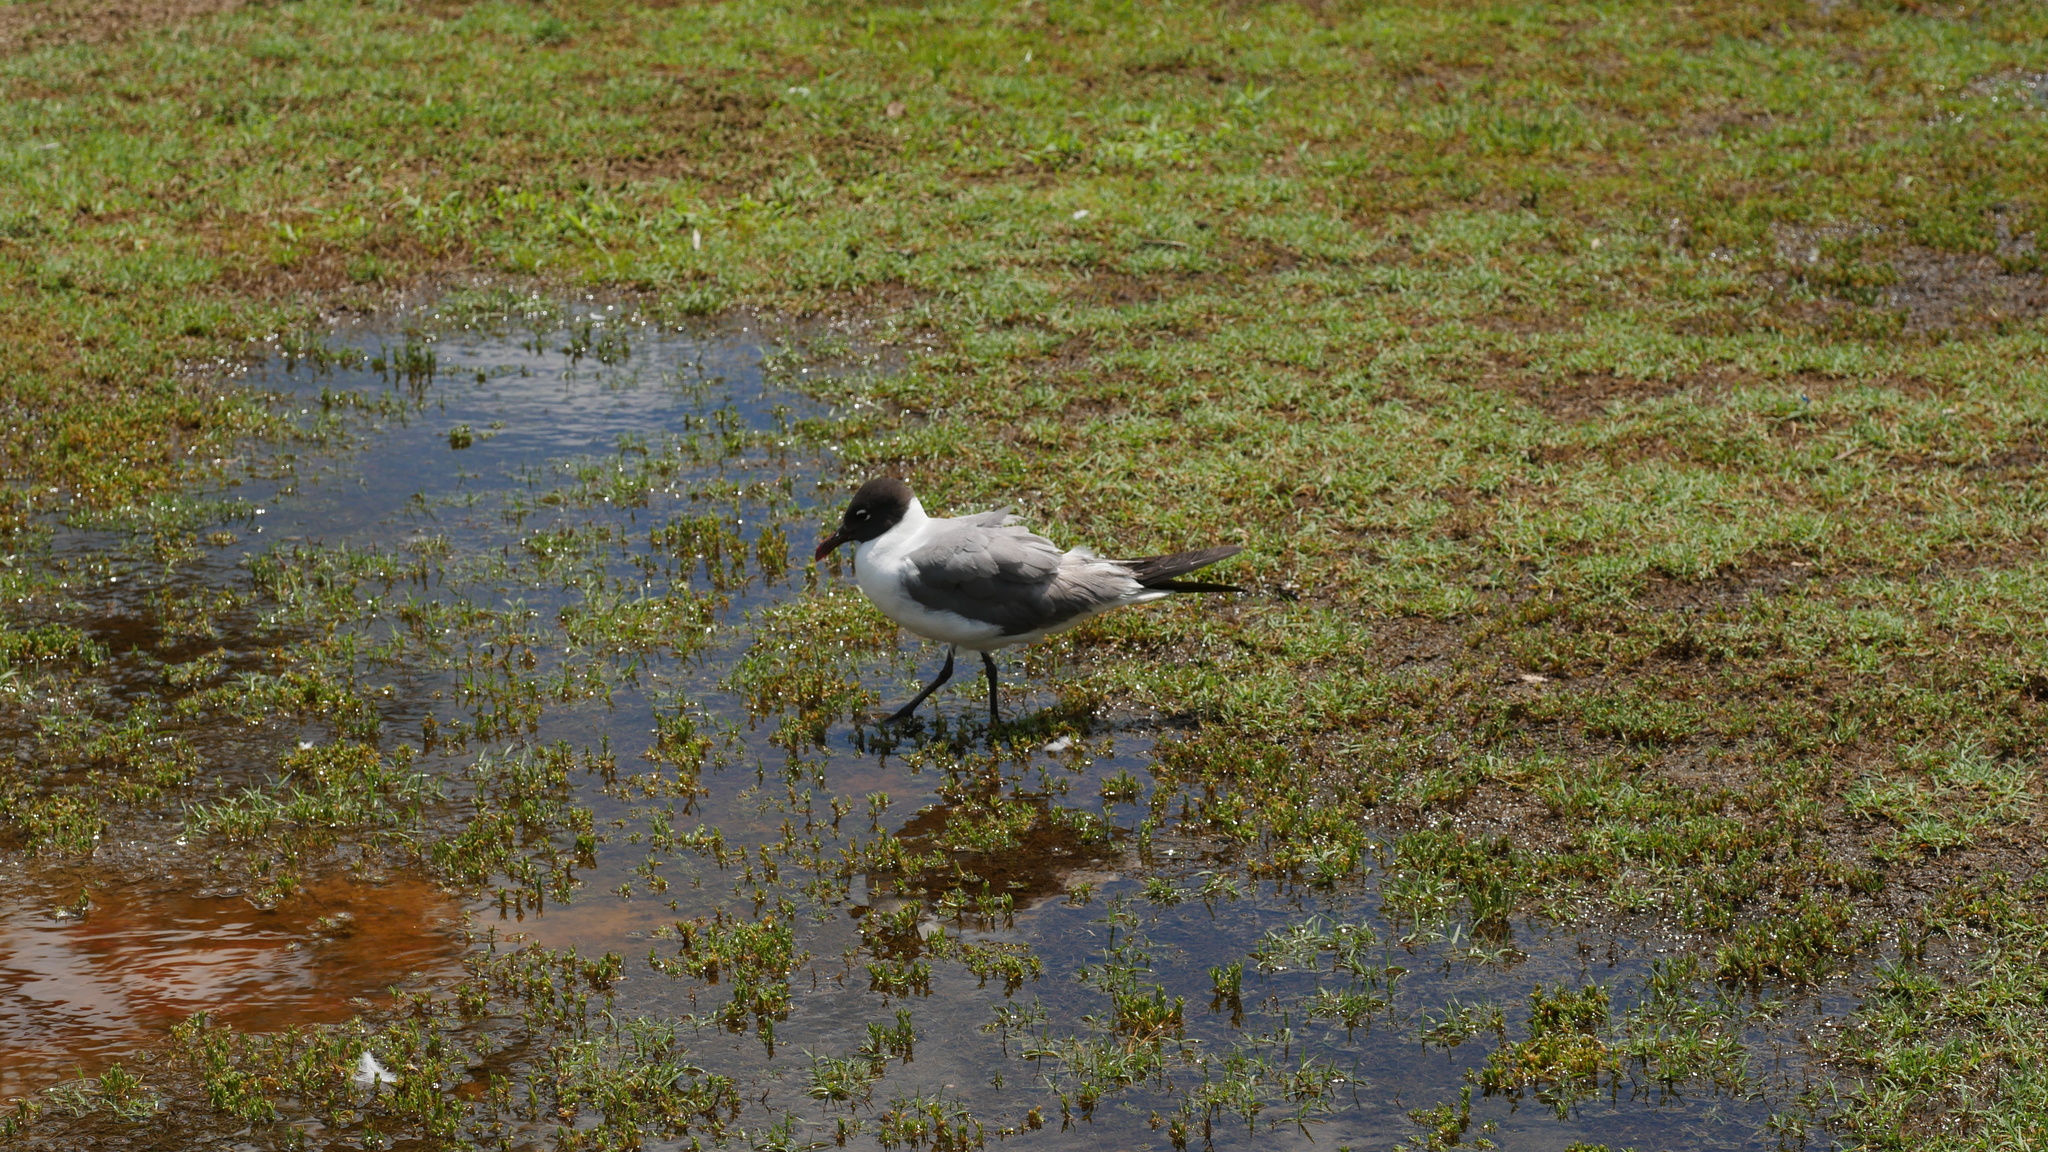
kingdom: Animalia
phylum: Chordata
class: Aves
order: Charadriiformes
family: Laridae
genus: Leucophaeus
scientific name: Leucophaeus atricilla
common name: Laughing gull
